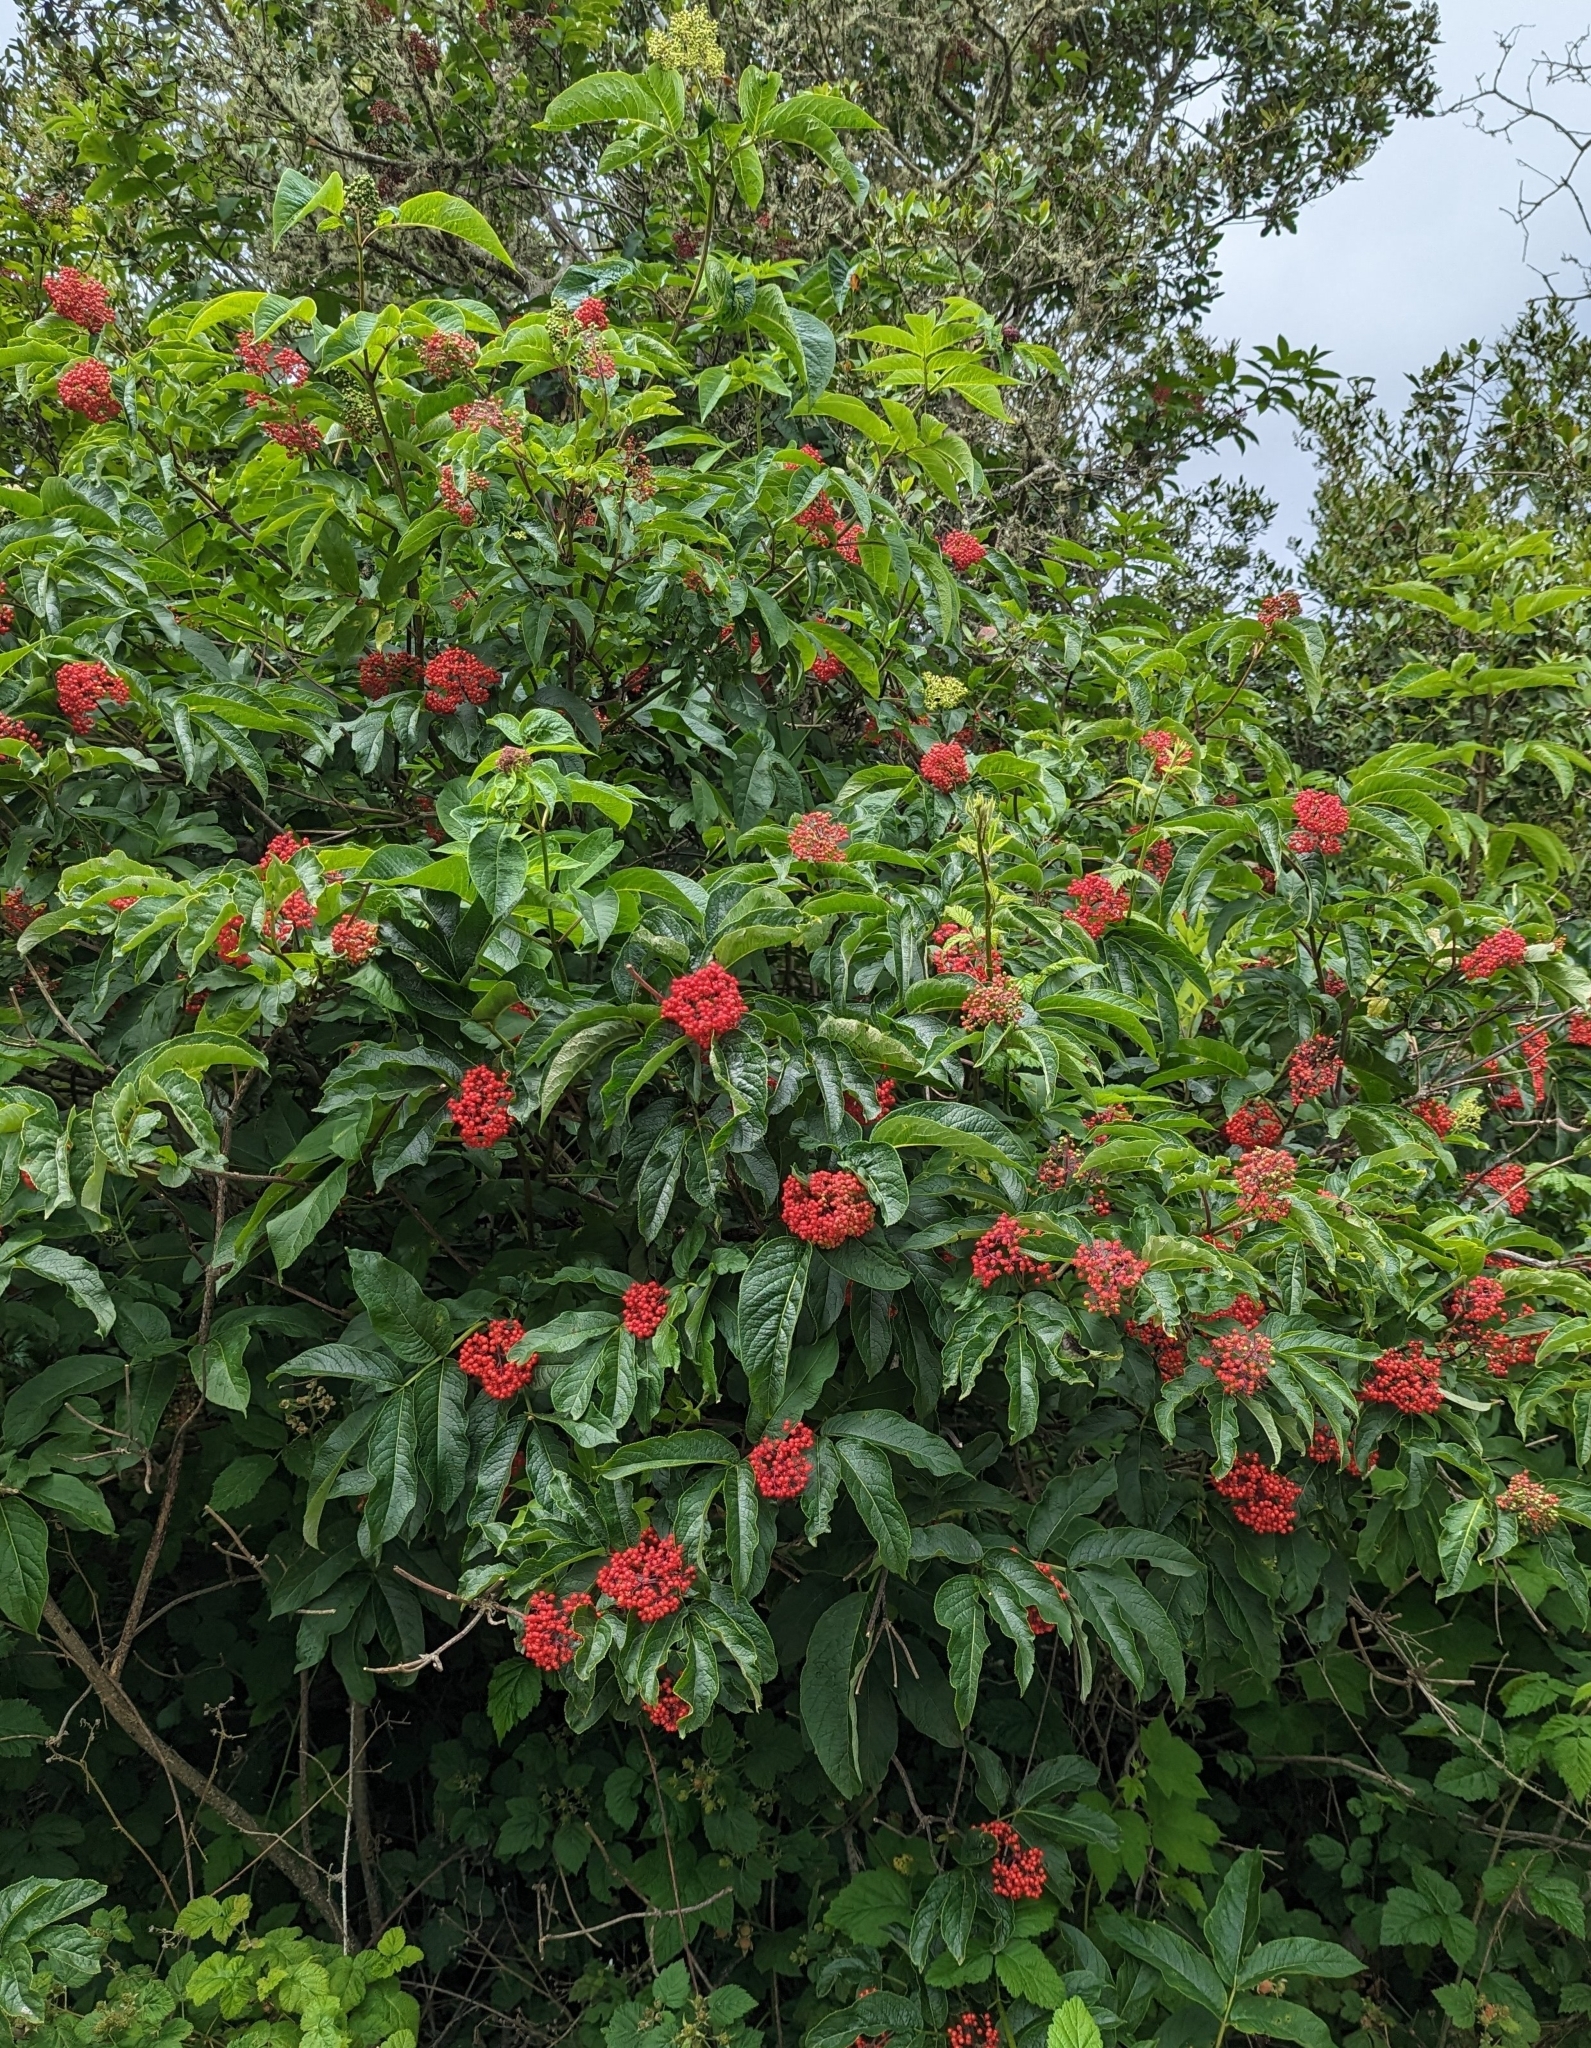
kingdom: Plantae
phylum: Tracheophyta
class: Magnoliopsida
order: Dipsacales
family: Viburnaceae
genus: Sambucus
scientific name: Sambucus racemosa
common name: Red-berried elder
